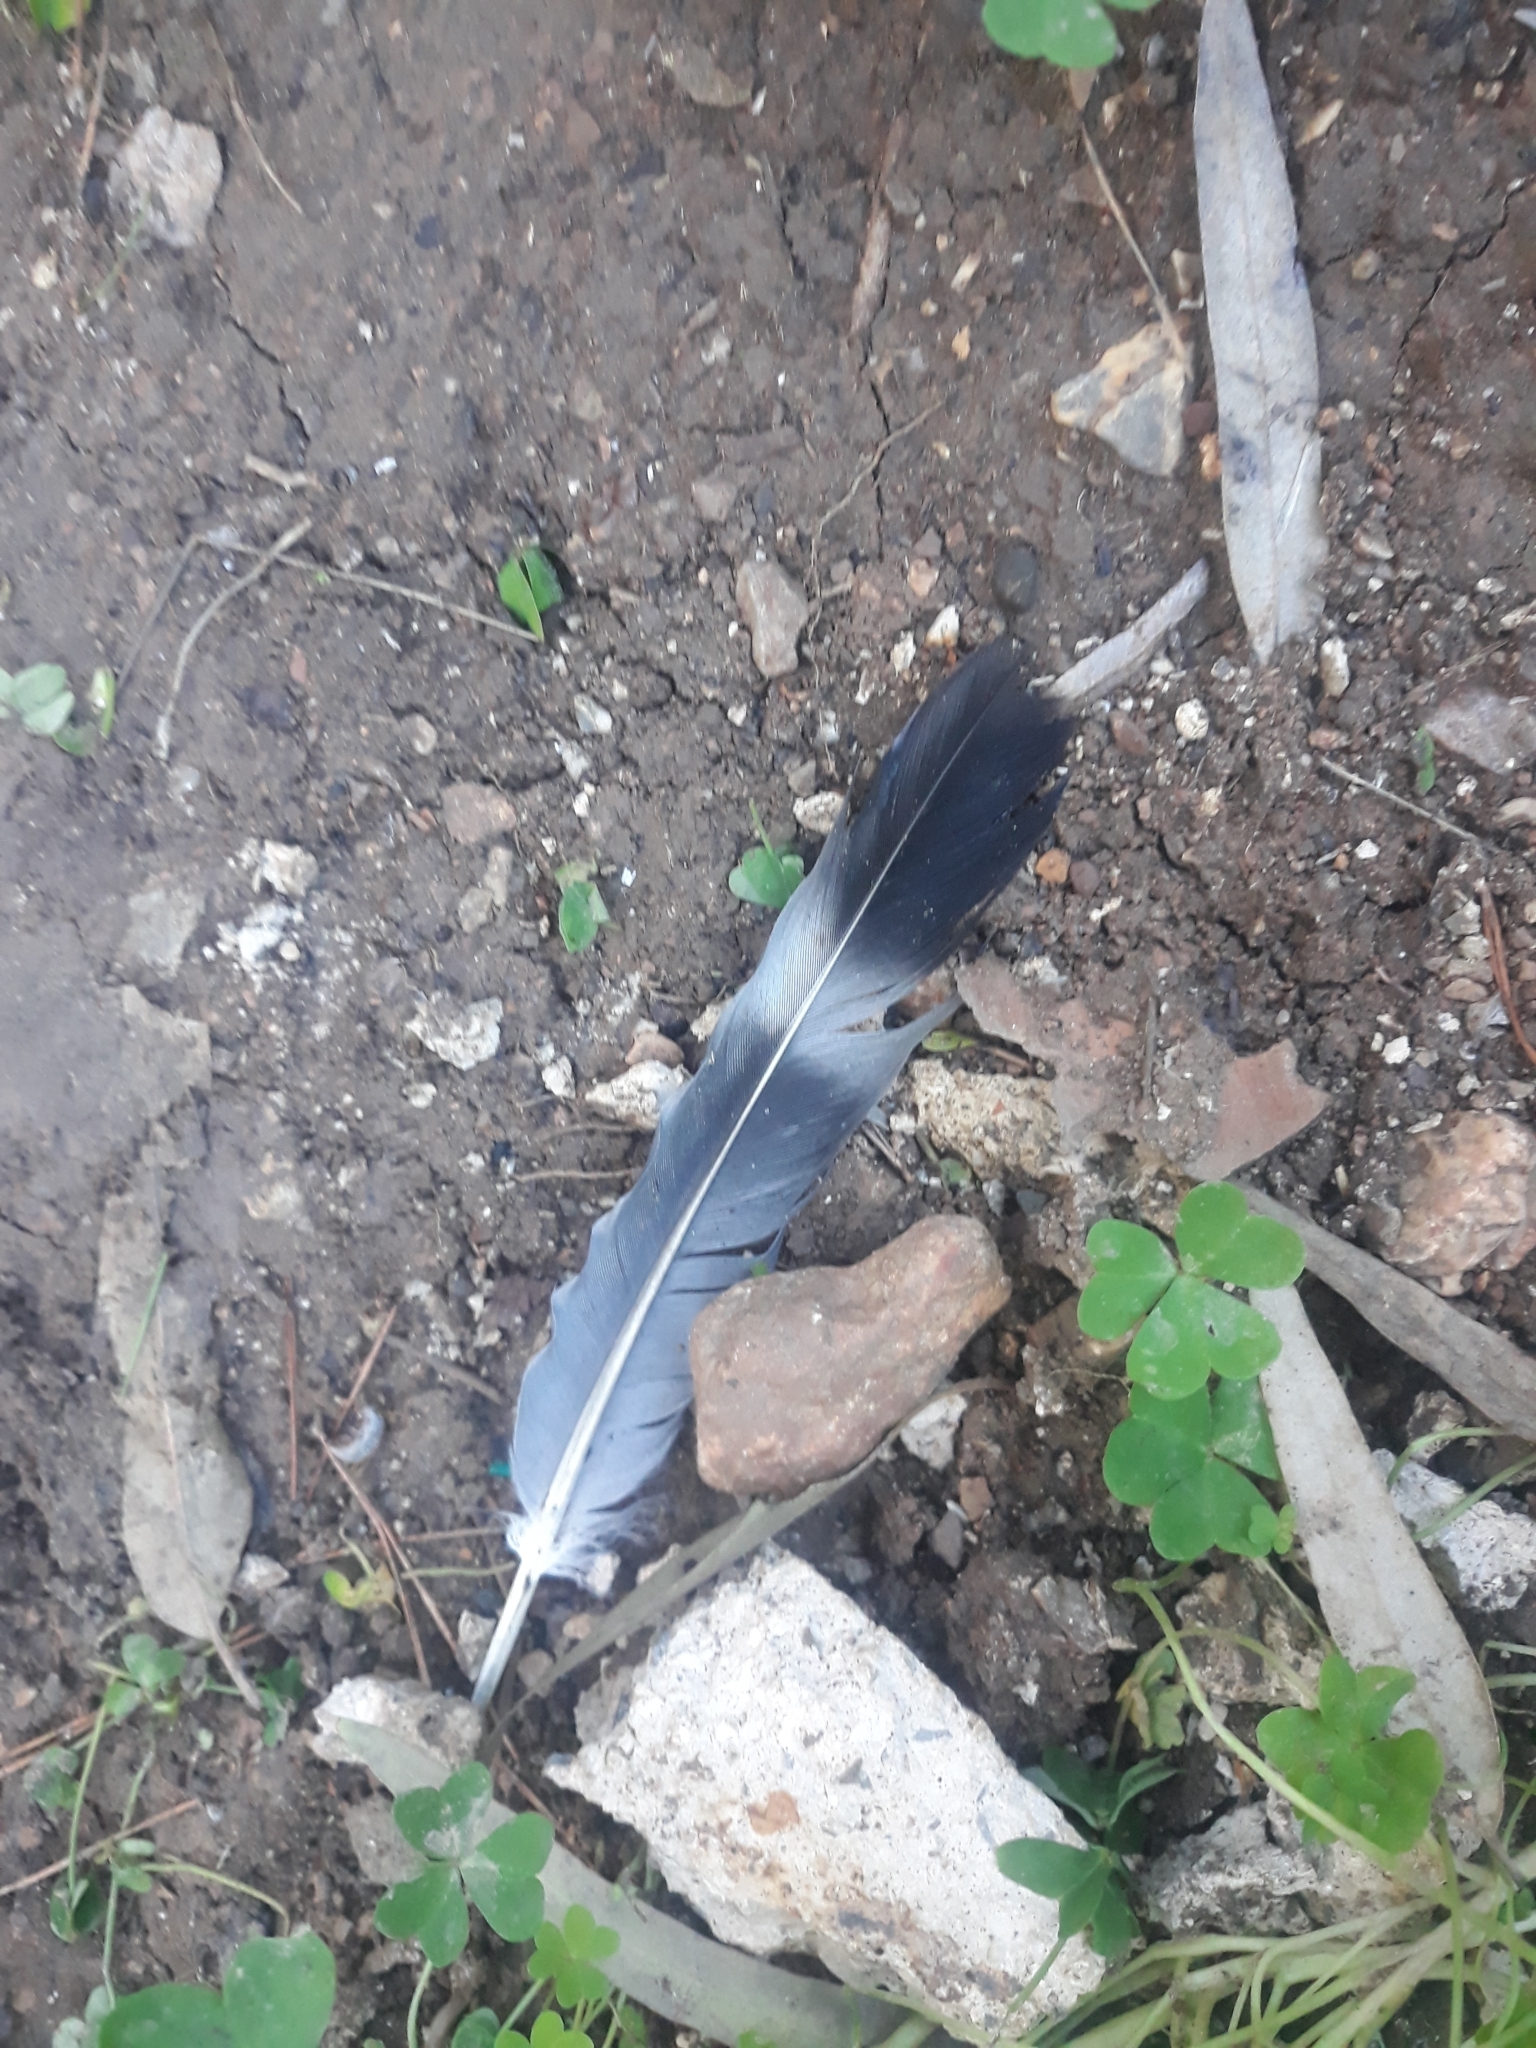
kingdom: Animalia
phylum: Chordata
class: Aves
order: Columbiformes
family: Columbidae
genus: Columba
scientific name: Columba palumbus
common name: Common wood pigeon
